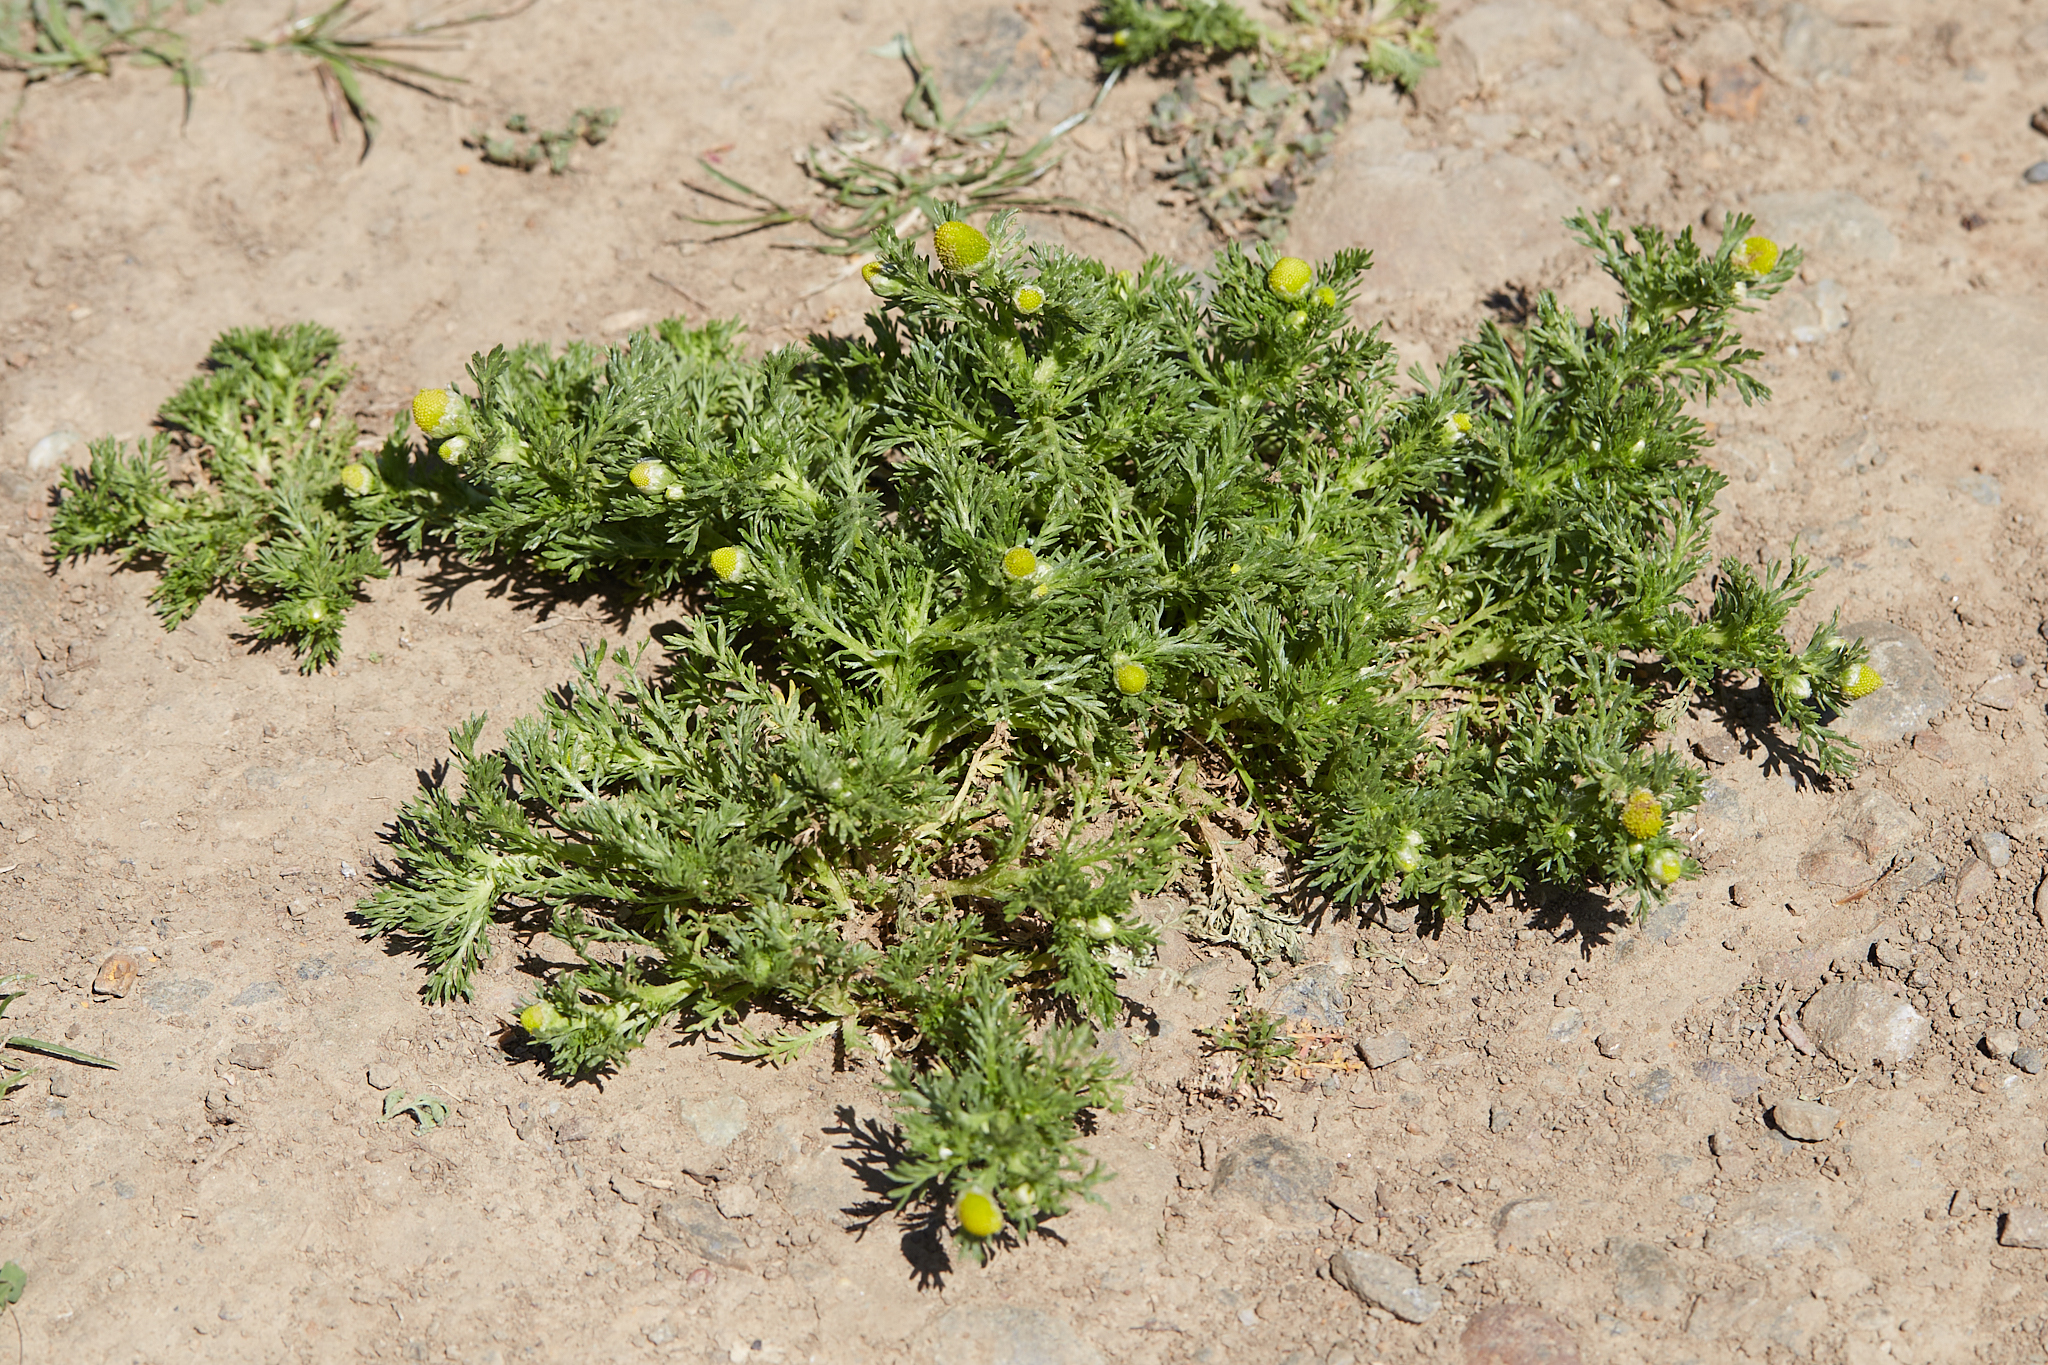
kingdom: Plantae
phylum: Tracheophyta
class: Magnoliopsida
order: Asterales
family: Asteraceae
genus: Matricaria
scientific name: Matricaria discoidea
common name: Disc mayweed
